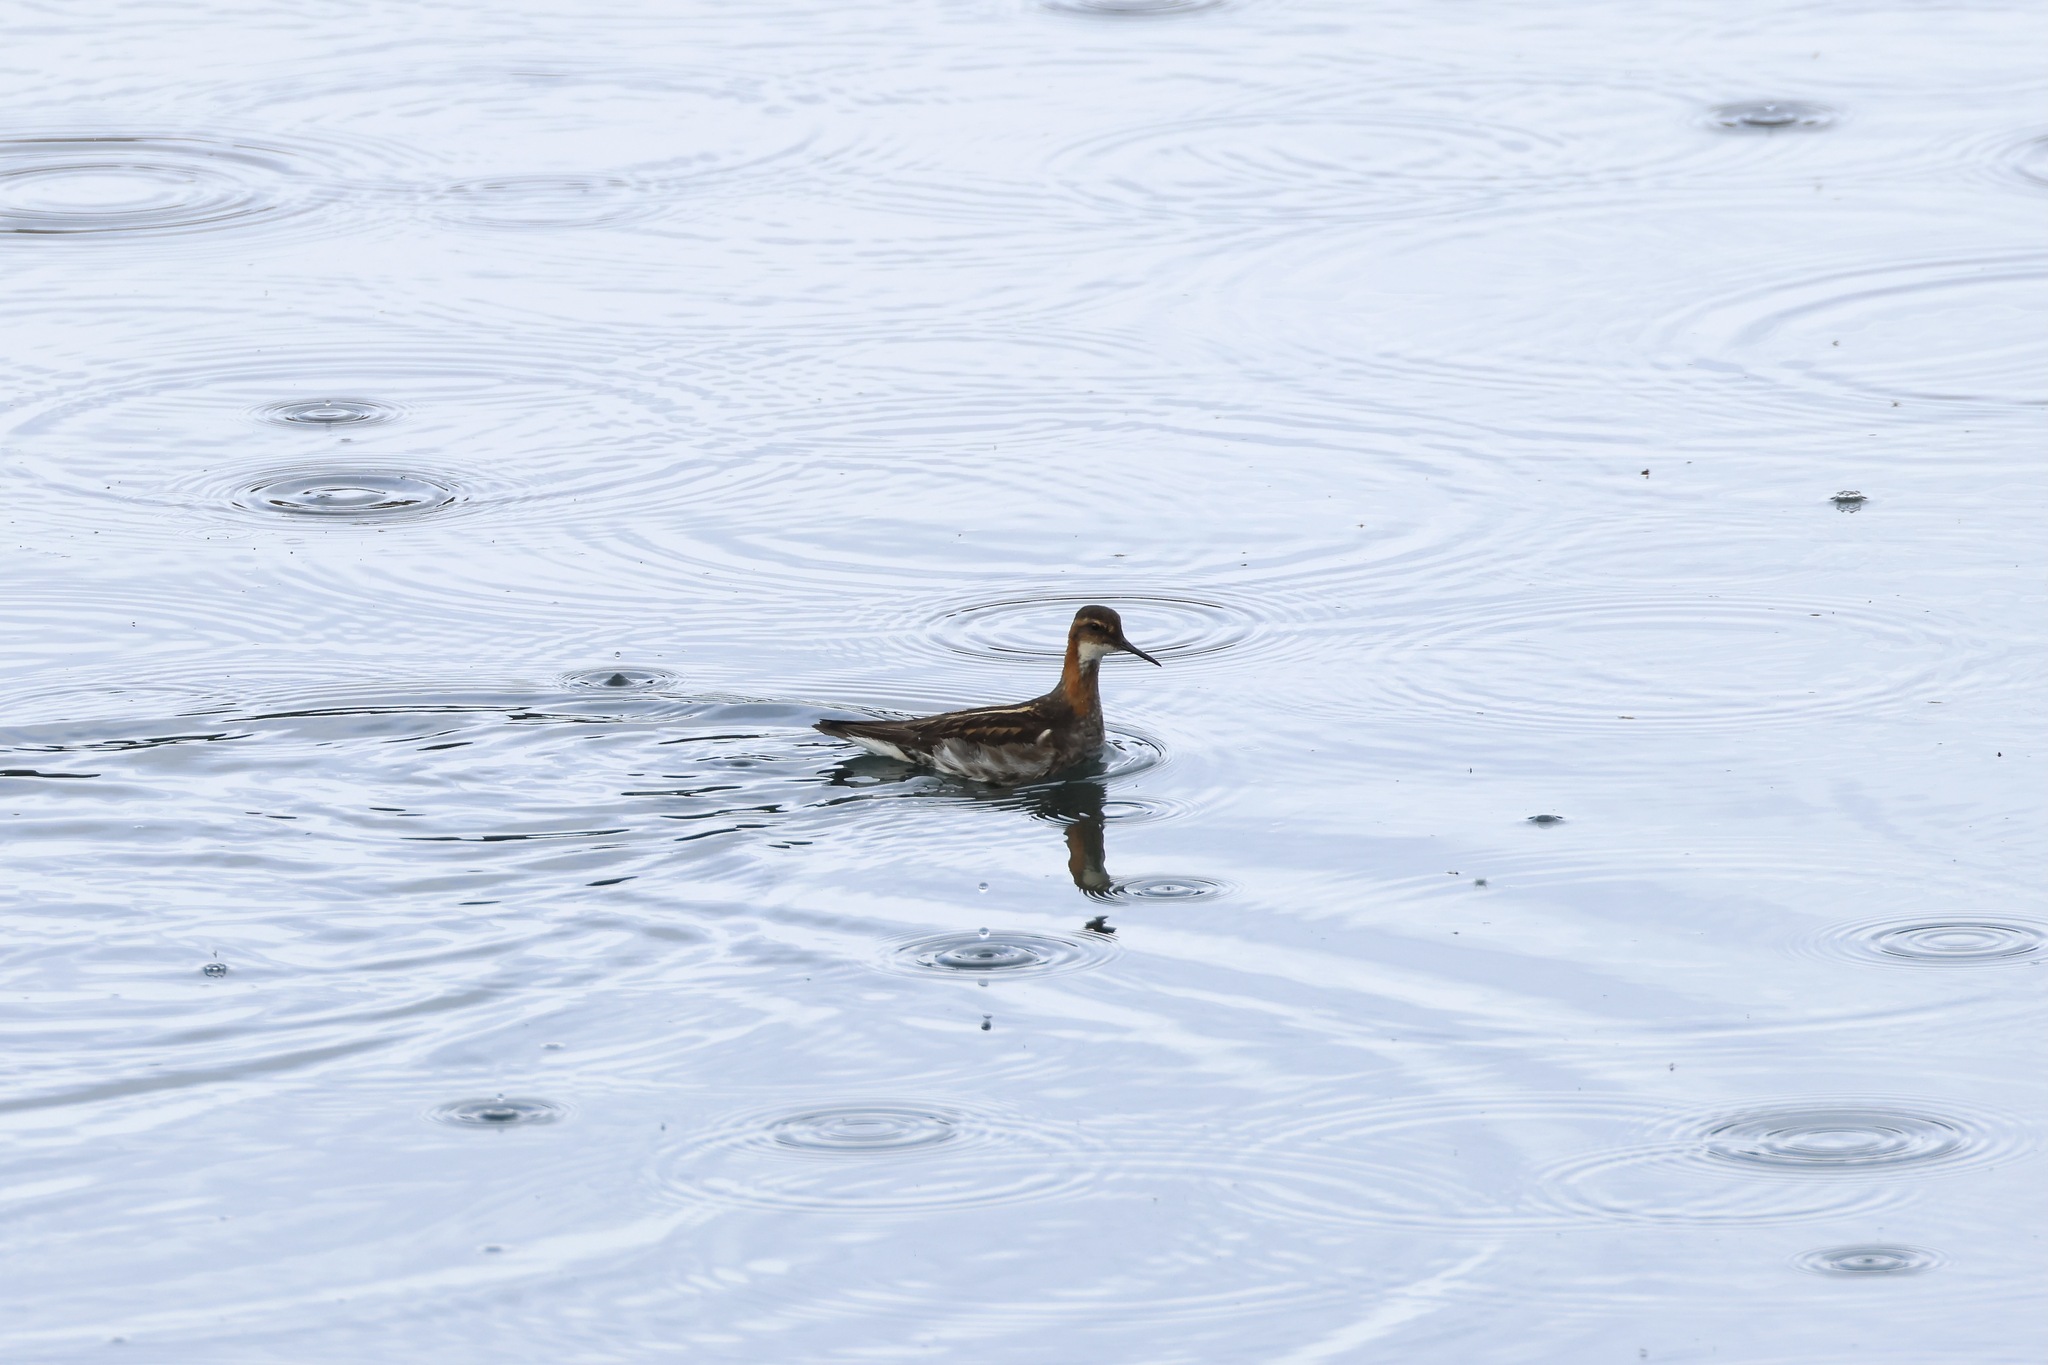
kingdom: Animalia
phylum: Chordata
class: Aves
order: Charadriiformes
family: Scolopacidae
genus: Phalaropus
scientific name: Phalaropus lobatus
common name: Red-necked phalarope
